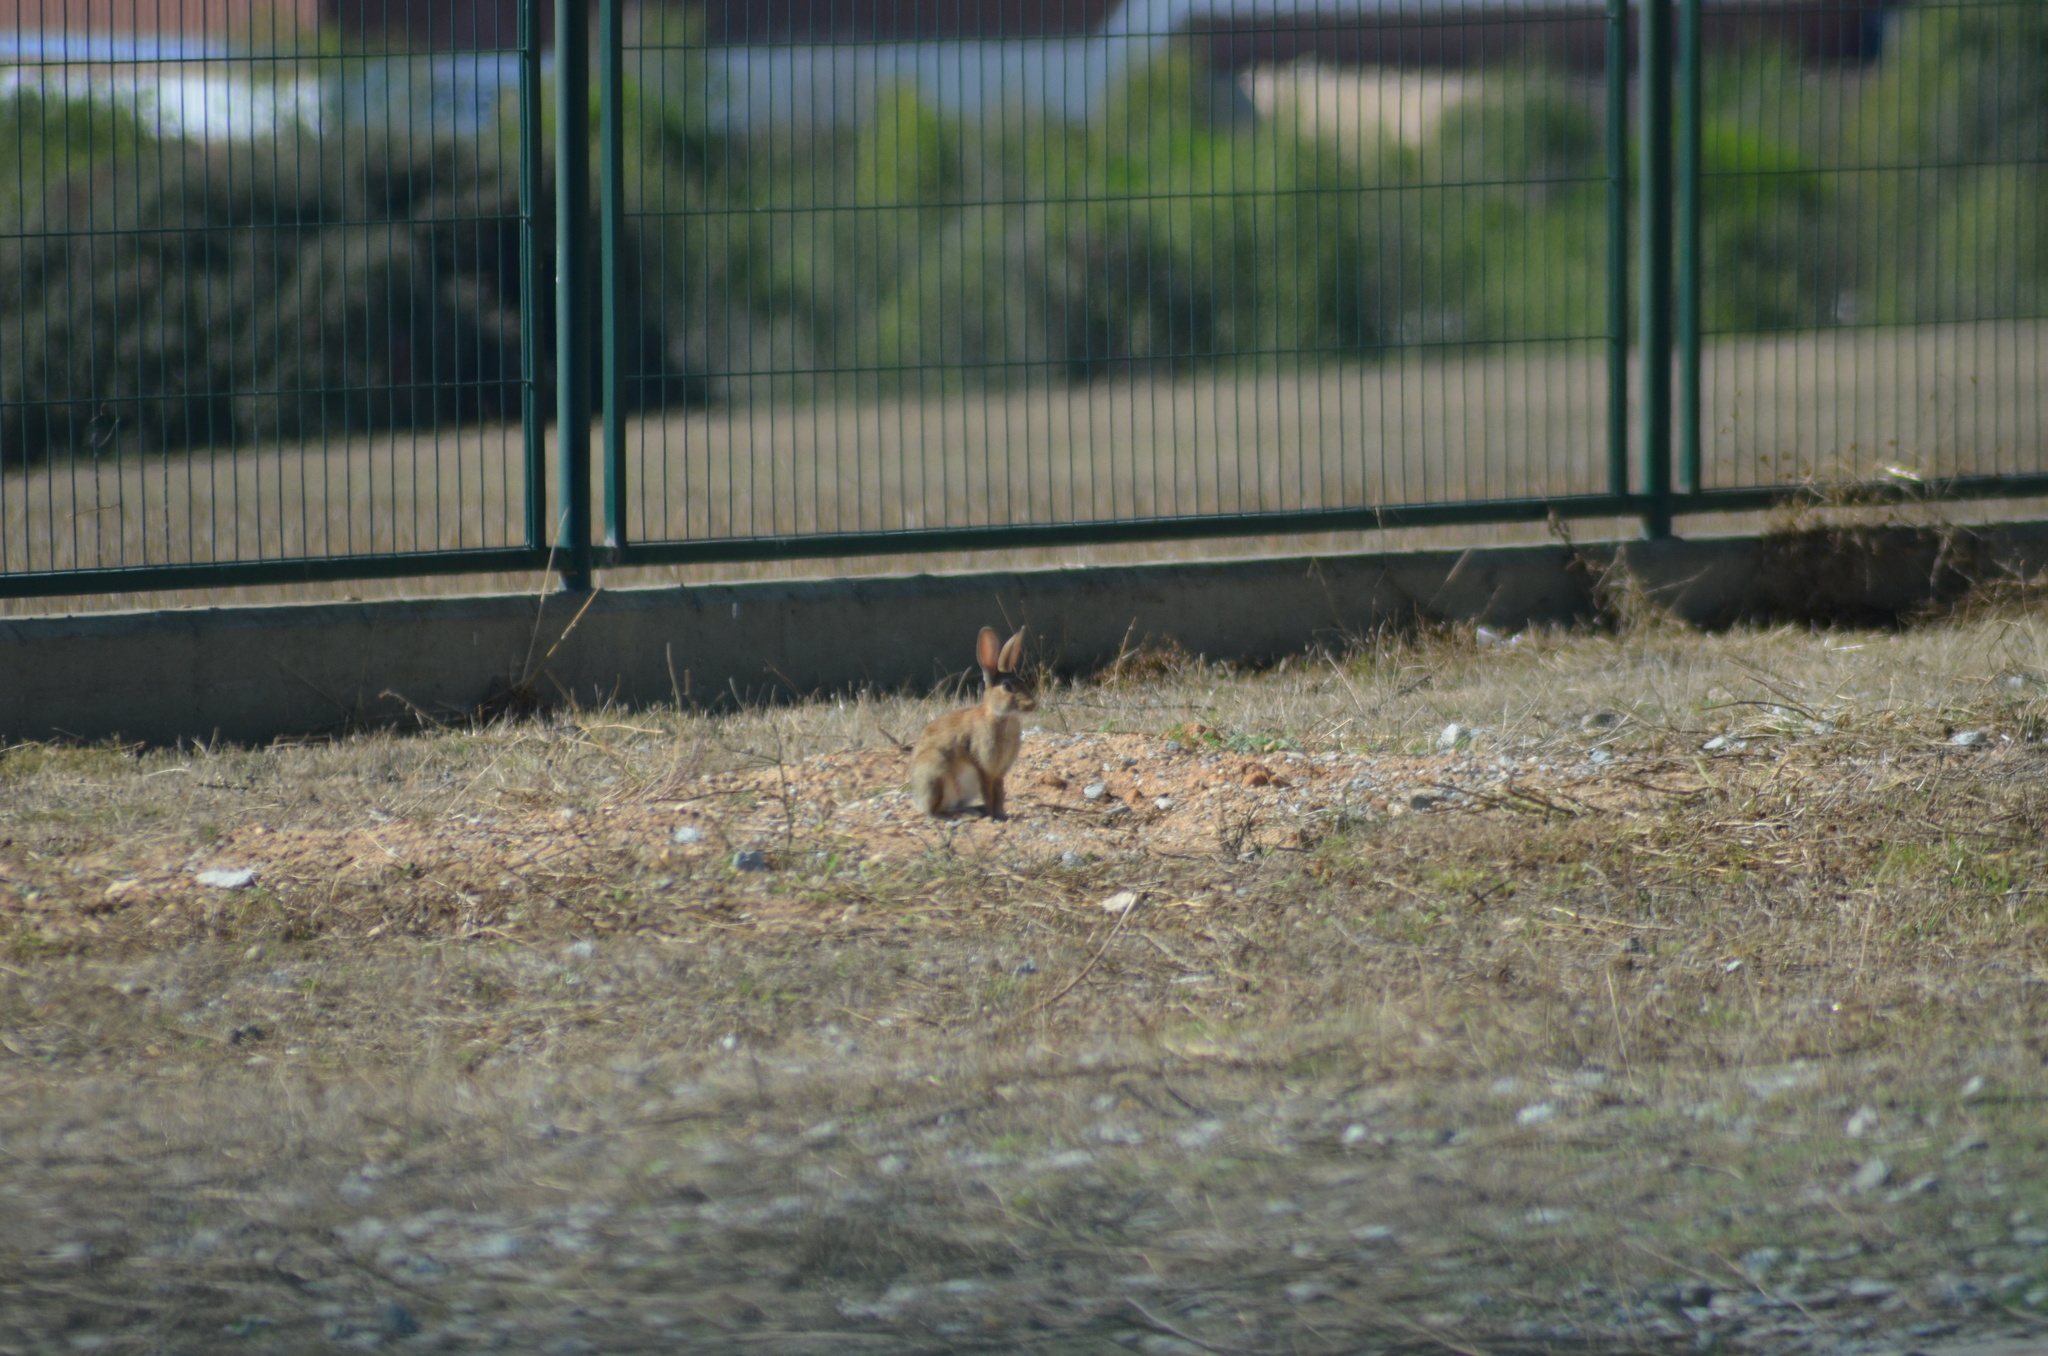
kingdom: Animalia
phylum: Chordata
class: Mammalia
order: Lagomorpha
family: Leporidae
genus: Oryctolagus
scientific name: Oryctolagus cuniculus
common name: European rabbit
